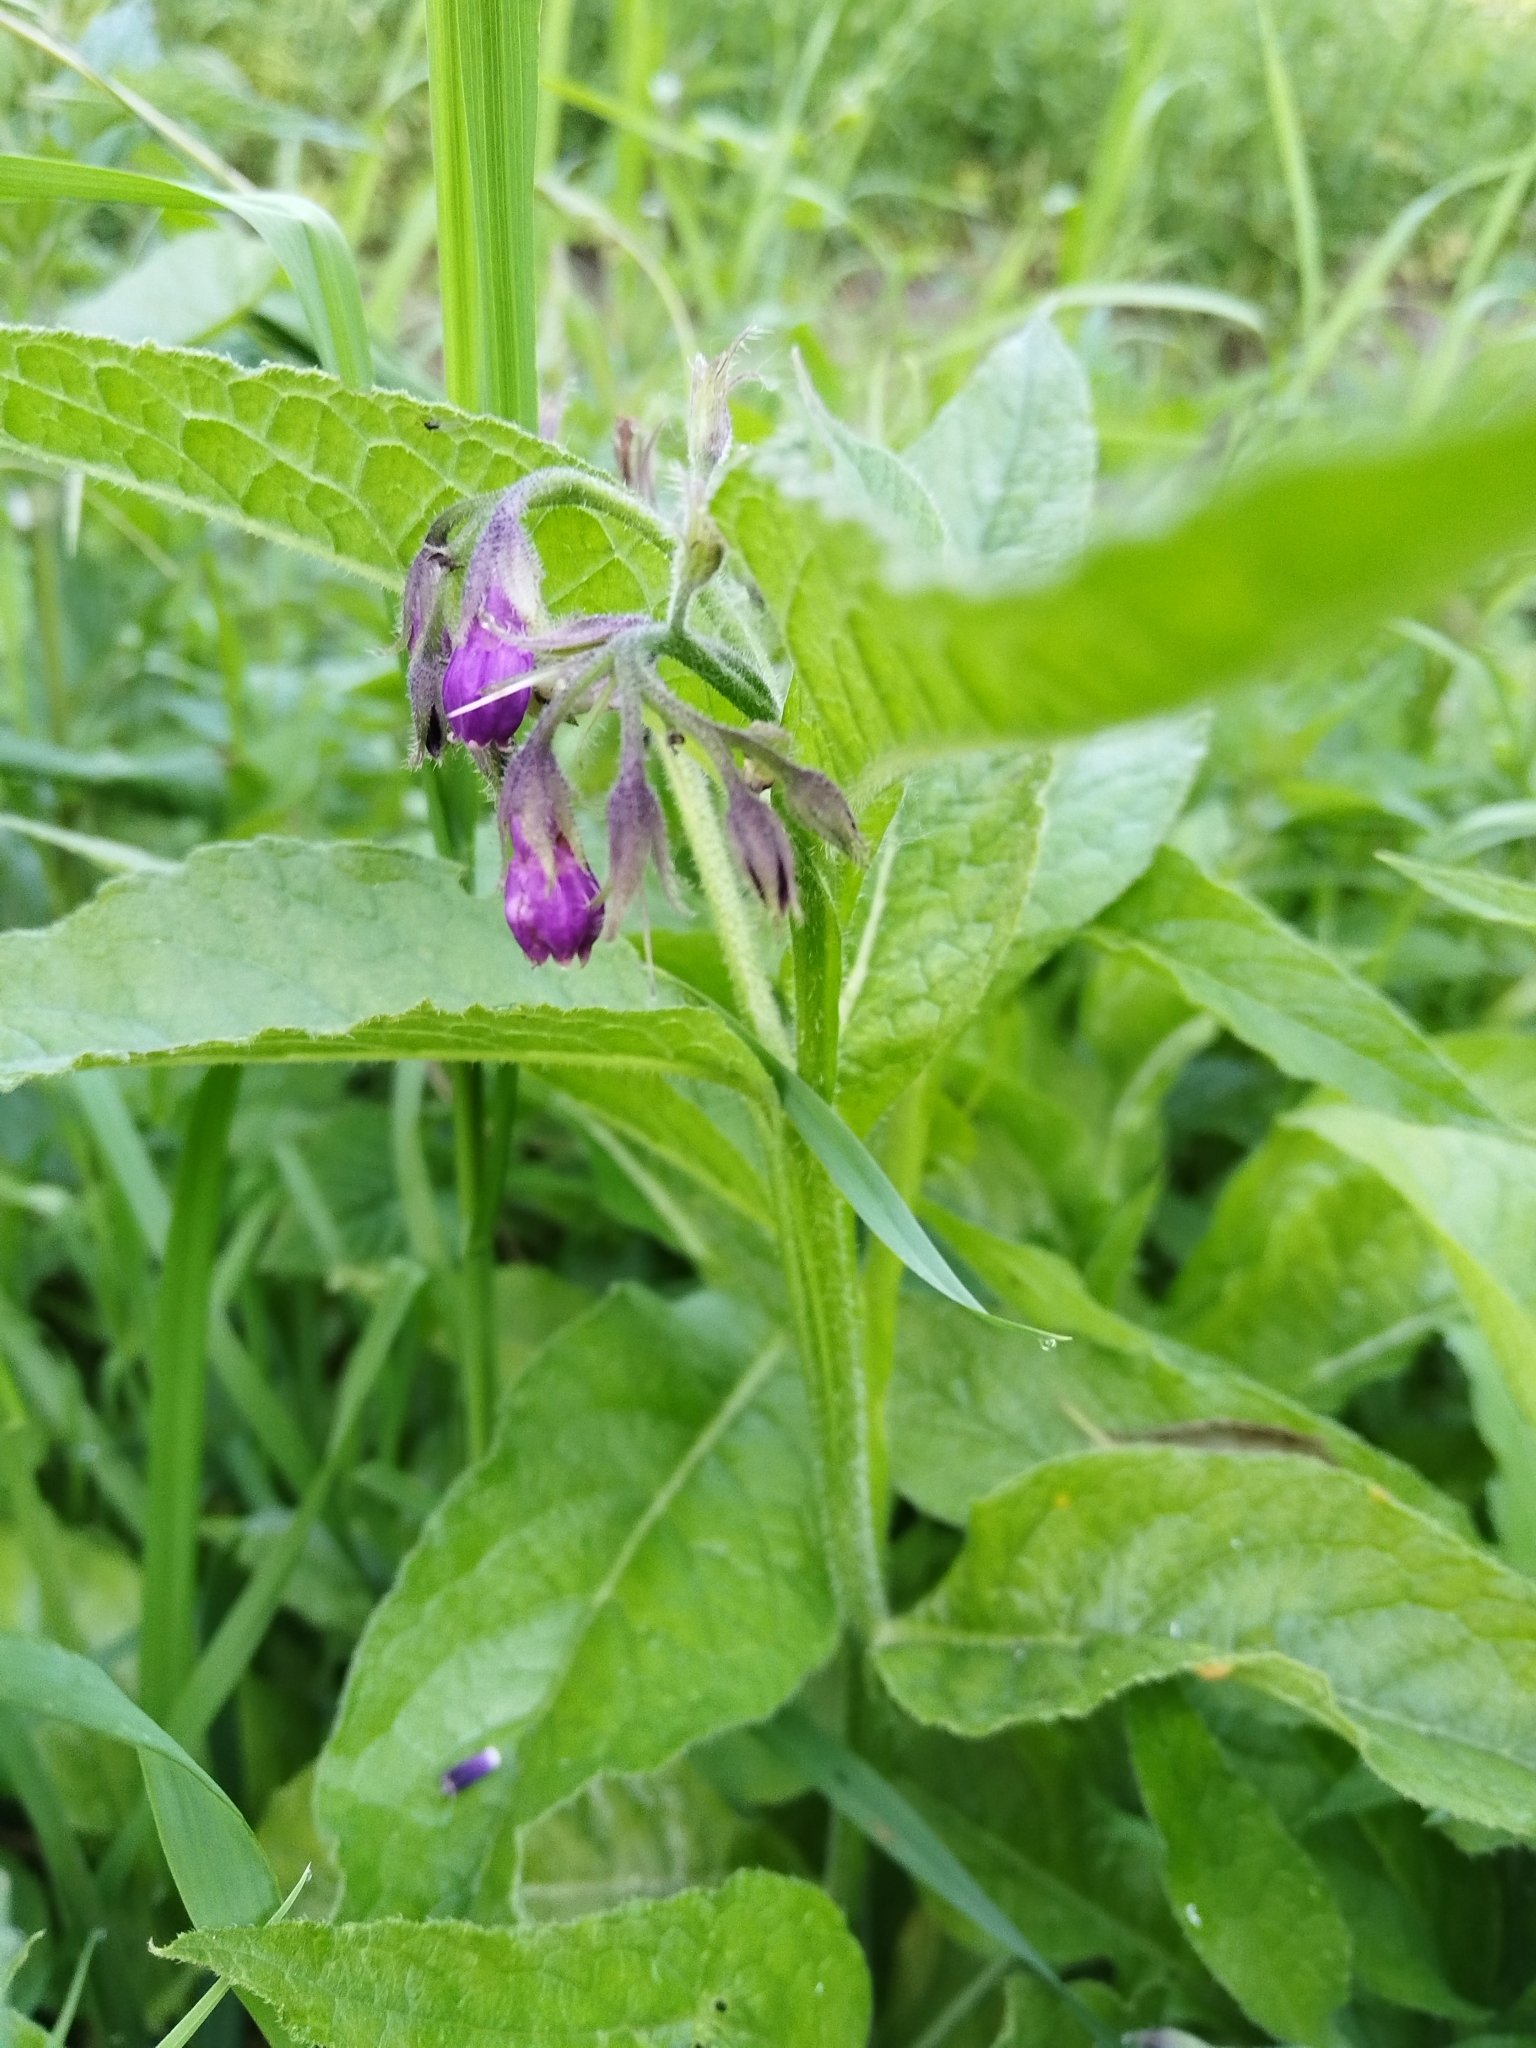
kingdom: Plantae
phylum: Tracheophyta
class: Magnoliopsida
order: Boraginales
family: Boraginaceae
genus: Symphytum
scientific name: Symphytum officinale
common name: Common comfrey
